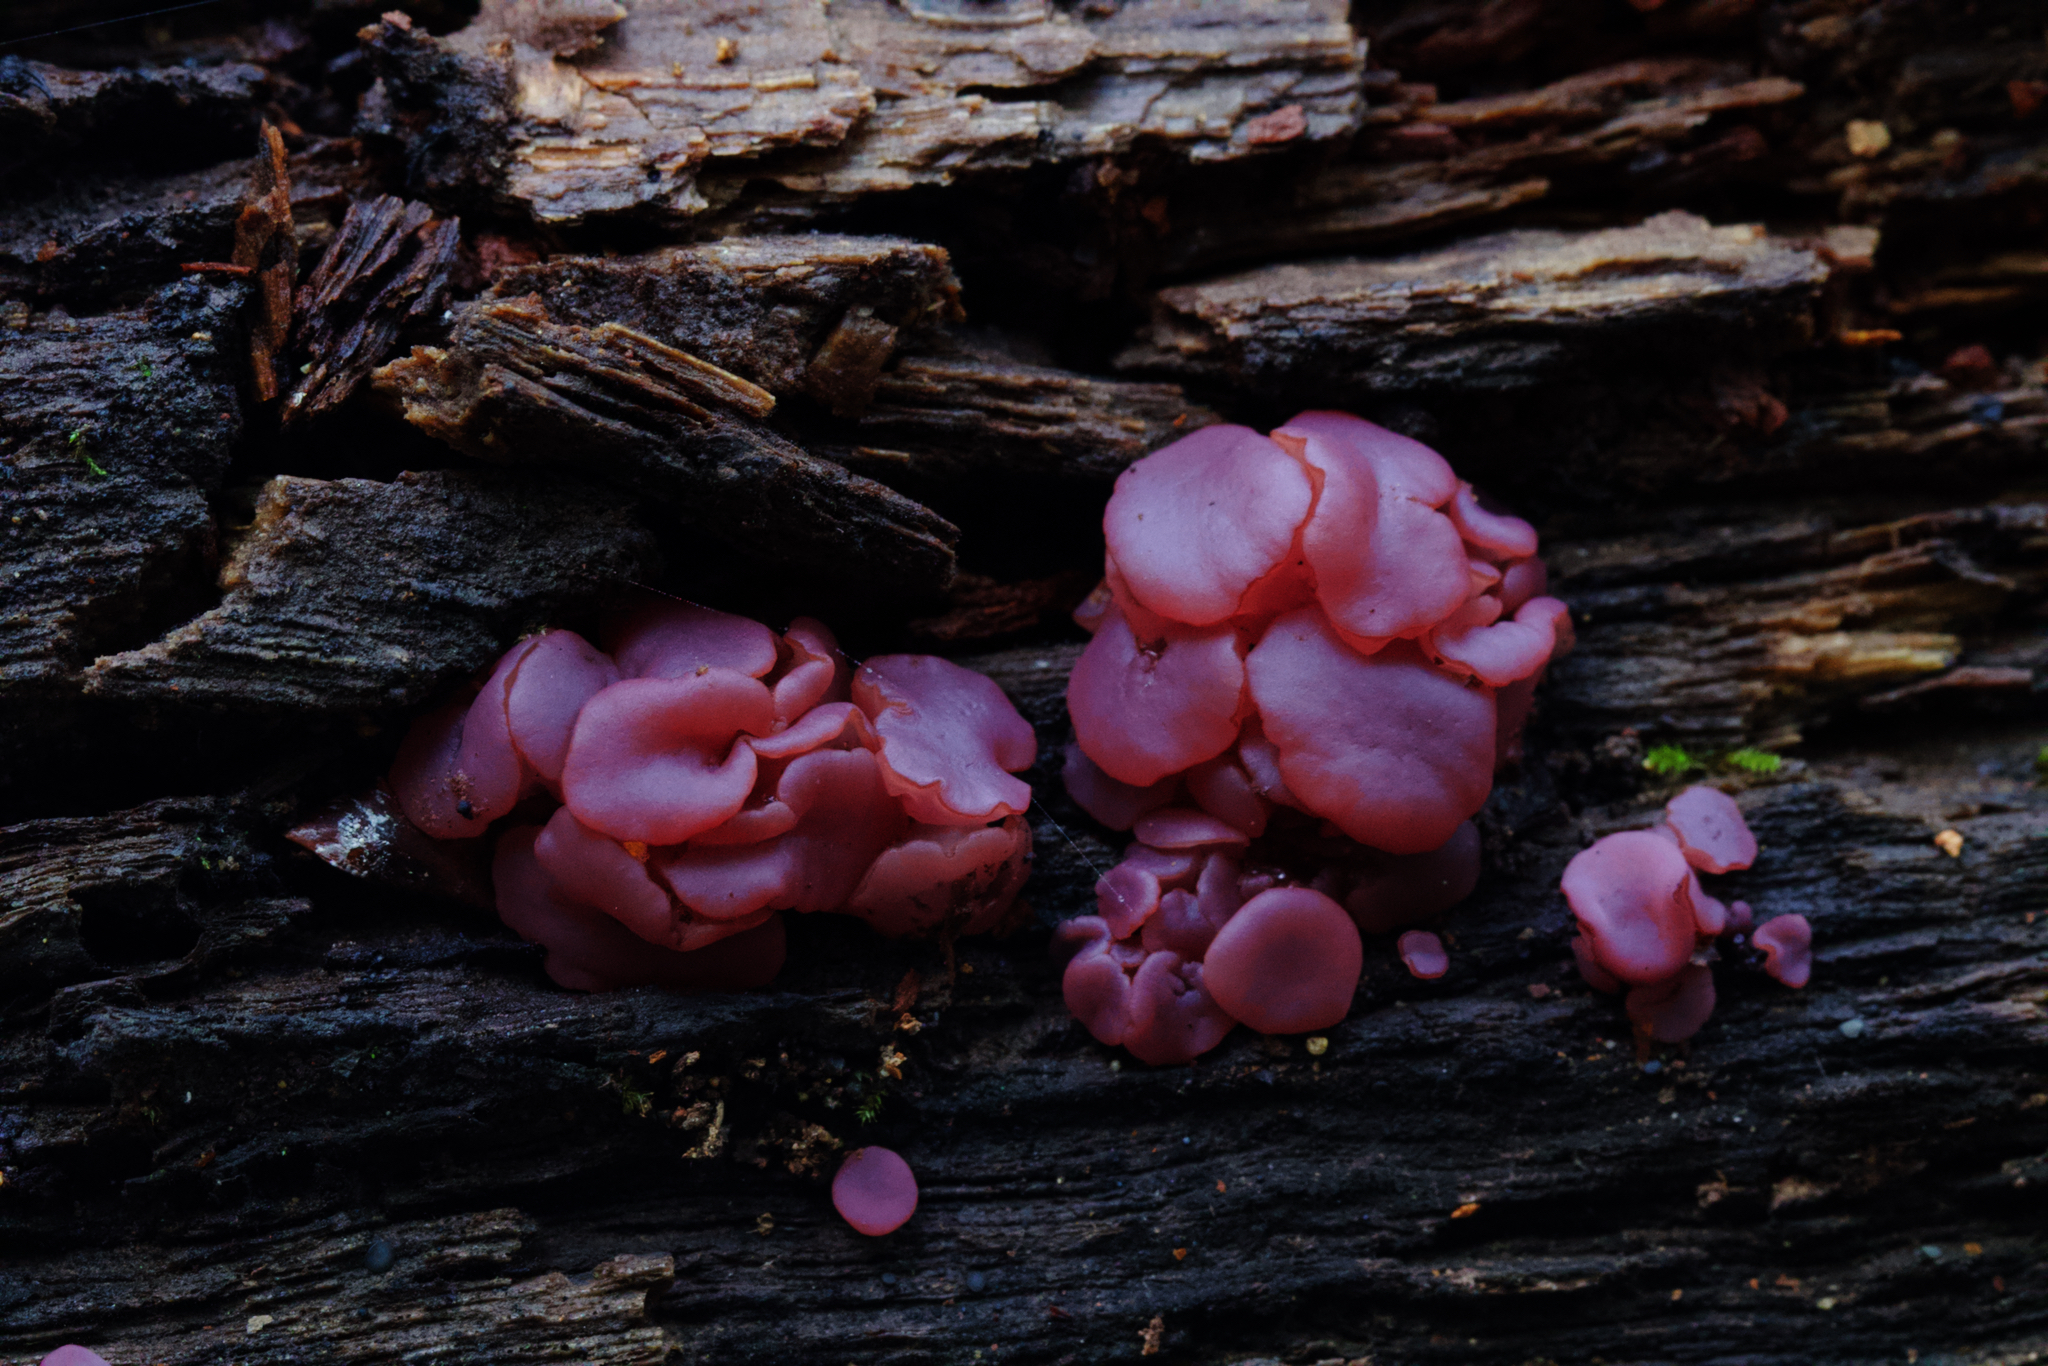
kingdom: Fungi
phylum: Ascomycota
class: Leotiomycetes
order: Helotiales
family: Gelatinodiscaceae
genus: Ascocoryne
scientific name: Ascocoryne sarcoides
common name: Purple jellydisc
